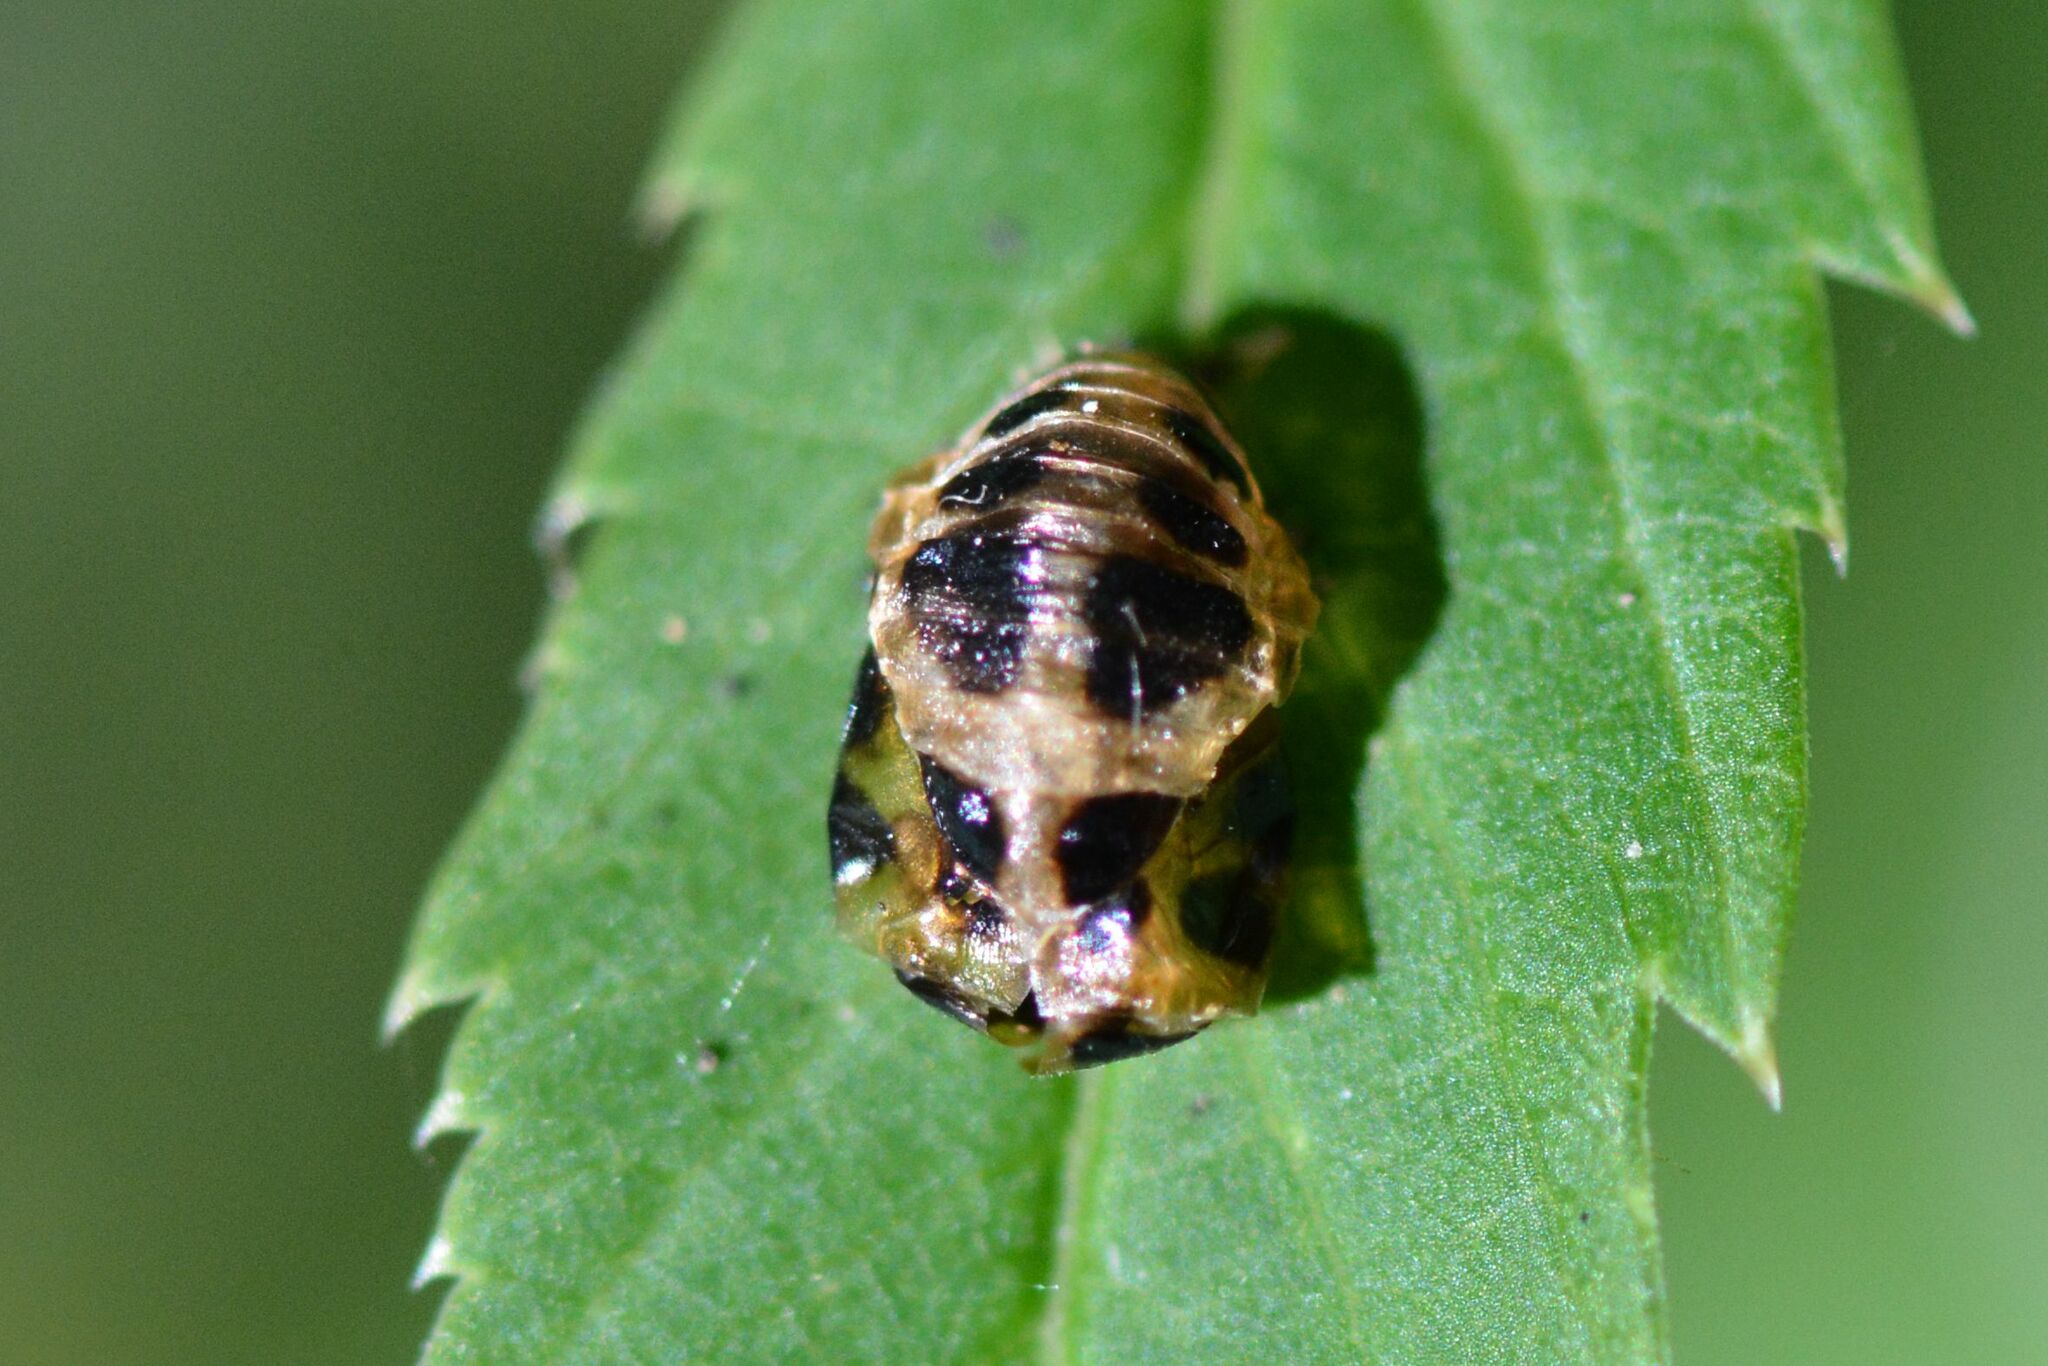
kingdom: Animalia
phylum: Arthropoda
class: Insecta
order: Coleoptera
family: Coccinellidae
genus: Harmonia
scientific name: Harmonia axyridis
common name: Harlequin ladybird
